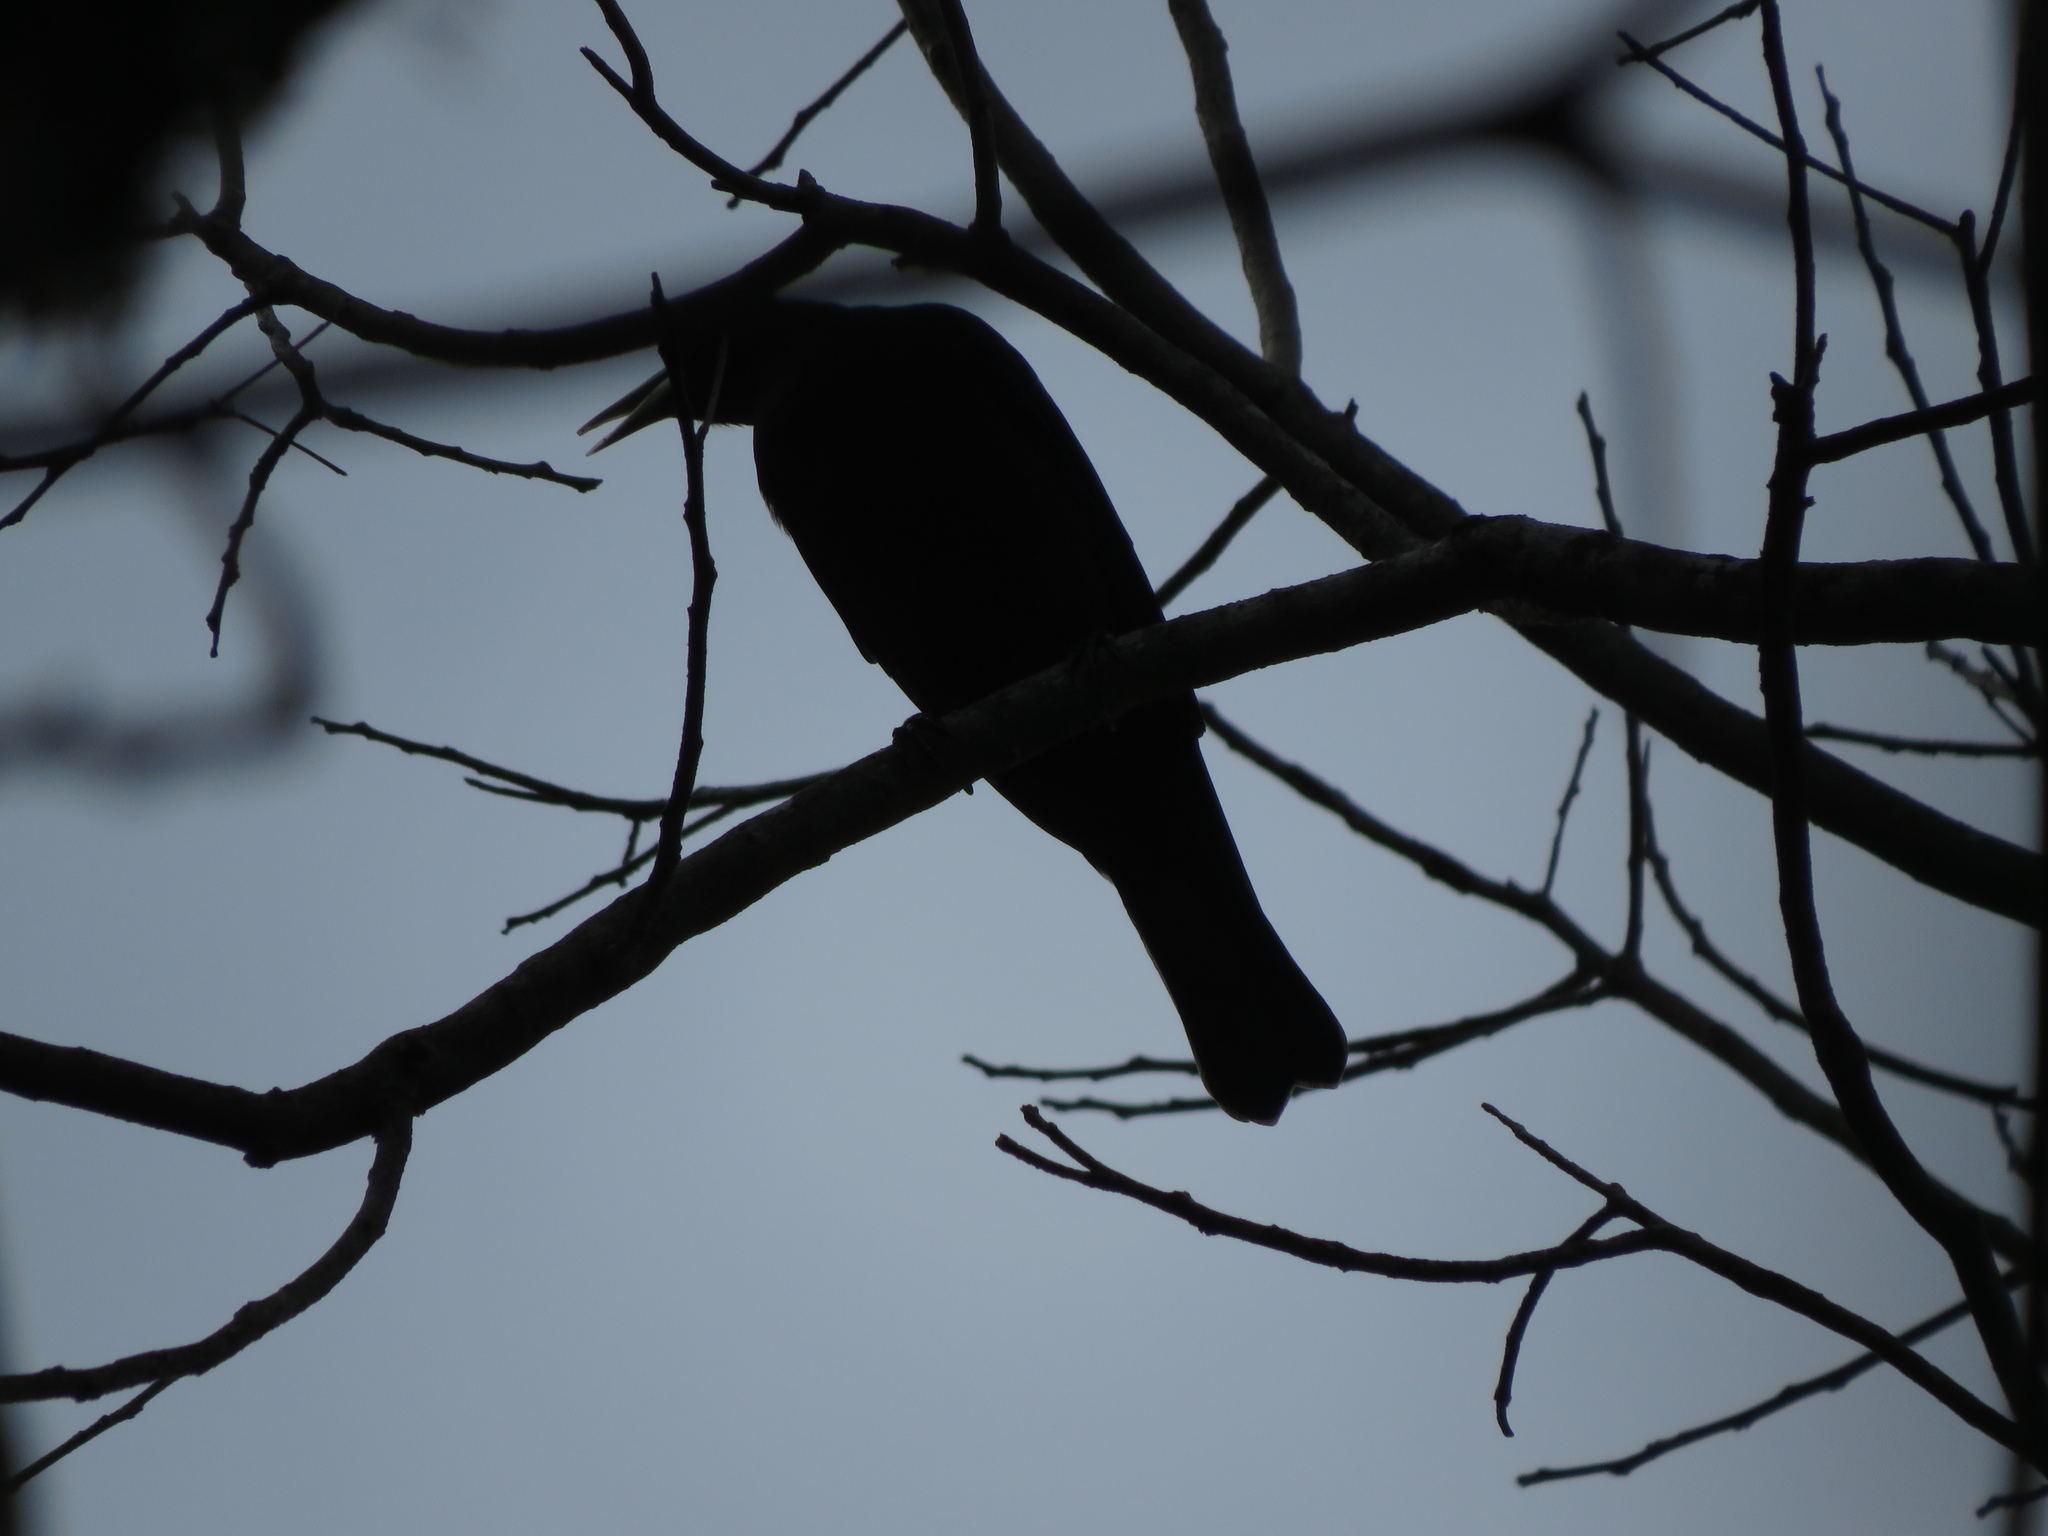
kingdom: Animalia
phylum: Chordata
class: Aves
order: Passeriformes
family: Icteridae
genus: Cacicus
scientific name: Cacicus haemorrhous
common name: Red-rumped cacique
